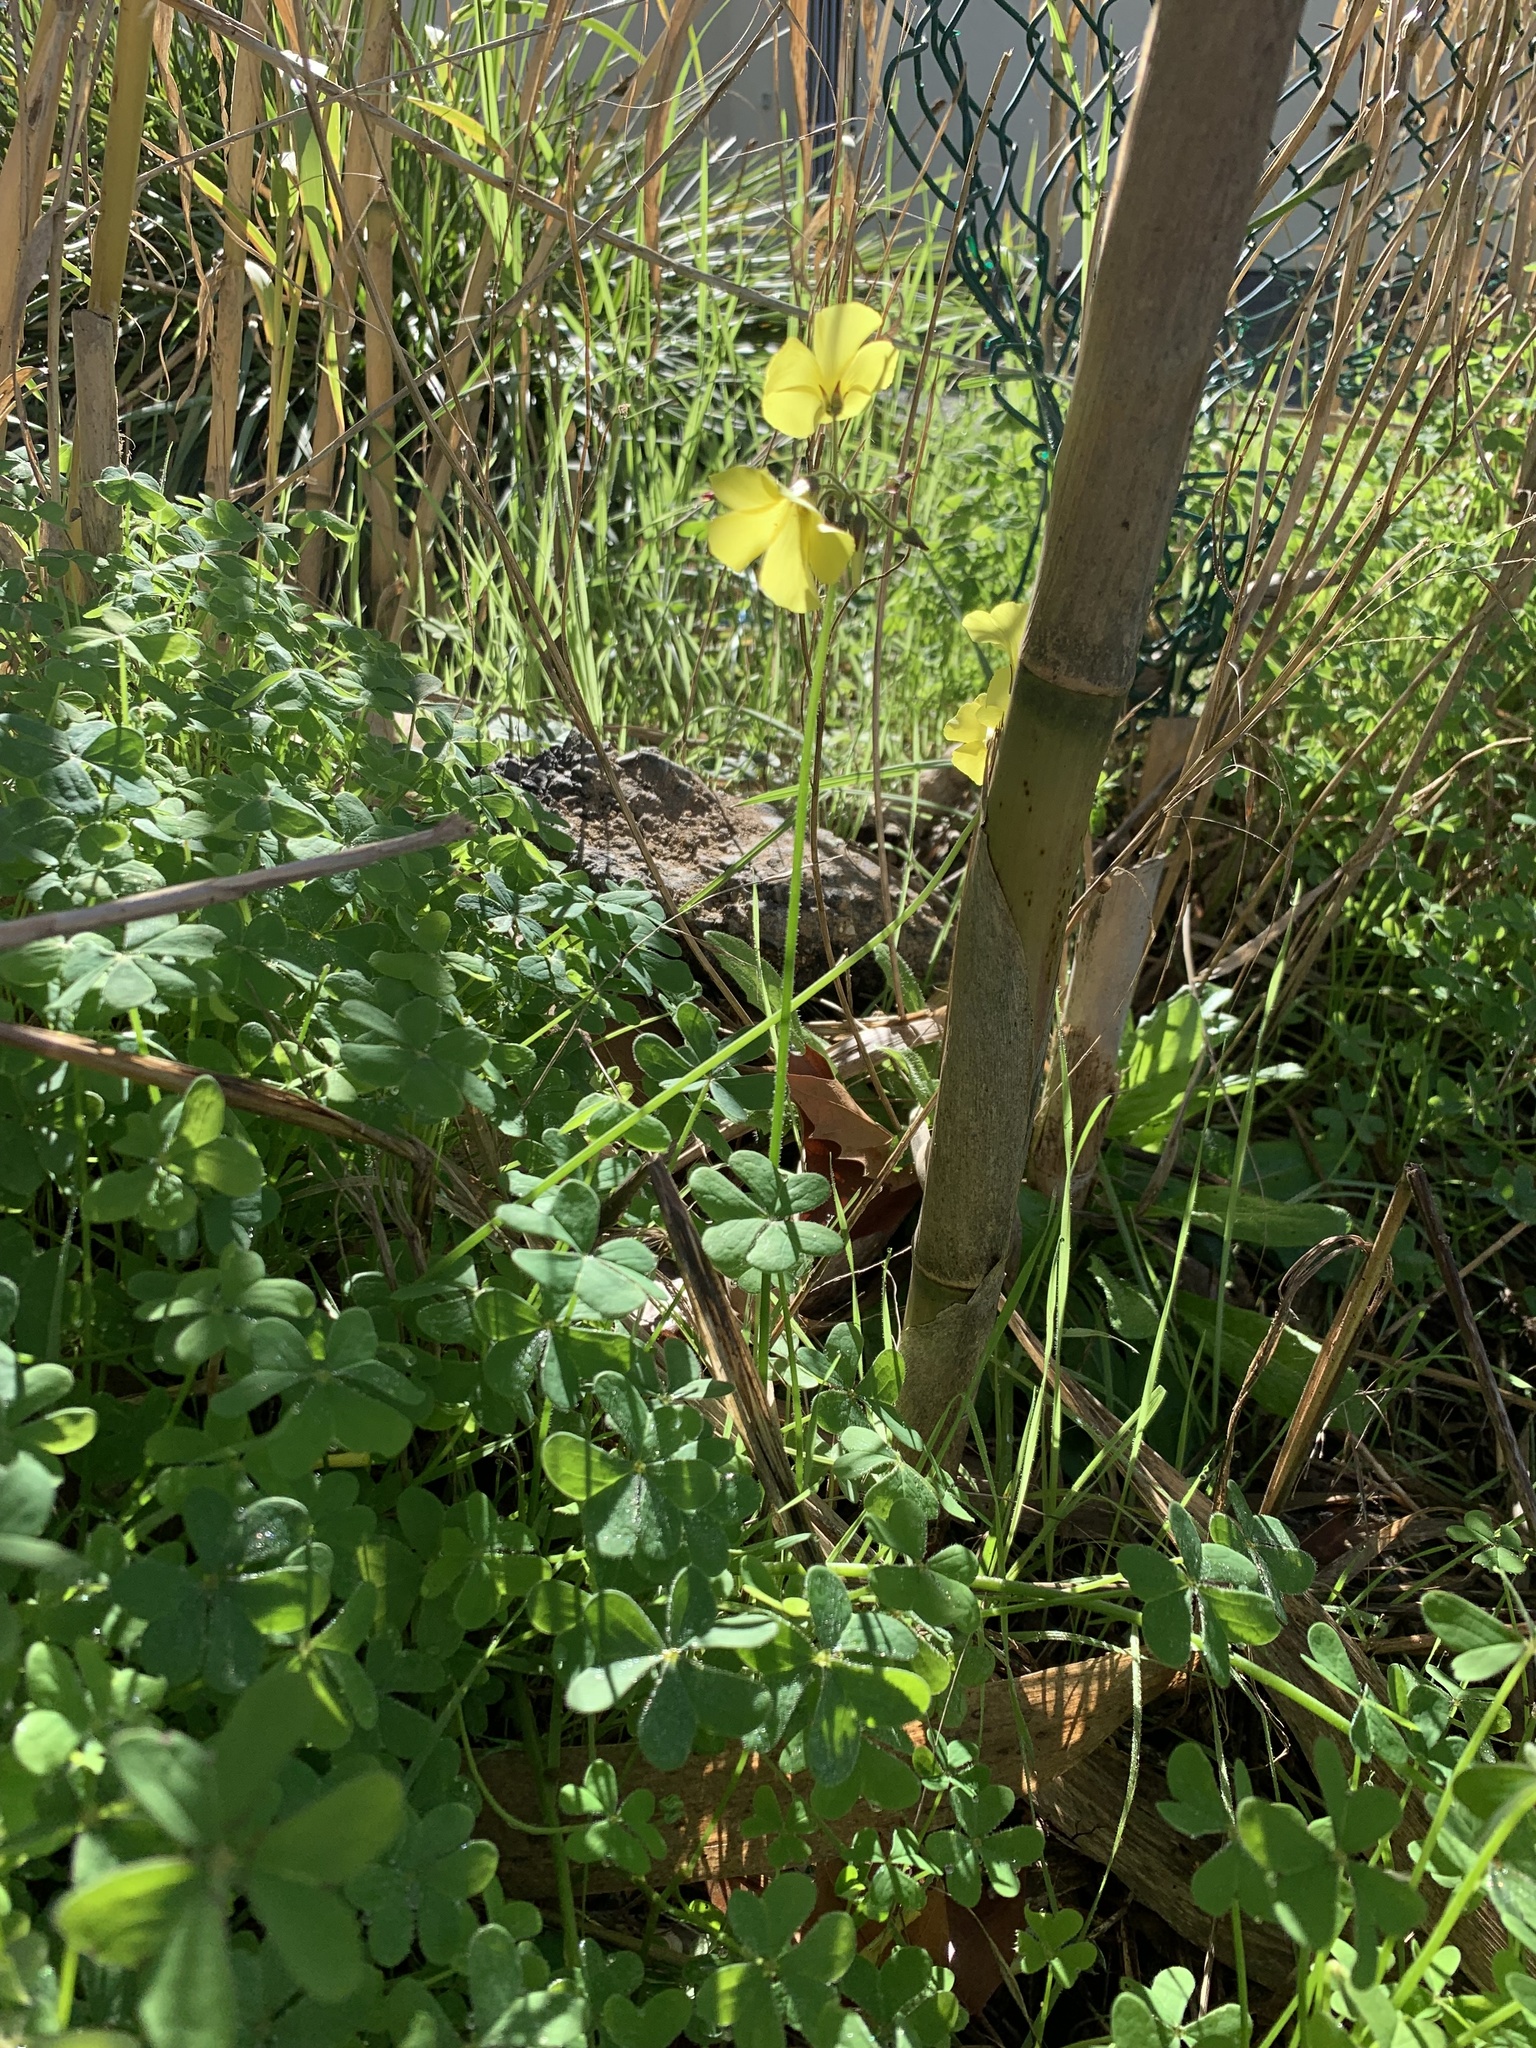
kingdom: Plantae
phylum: Tracheophyta
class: Magnoliopsida
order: Oxalidales
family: Oxalidaceae
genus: Oxalis
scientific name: Oxalis pes-caprae
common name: Bermuda-buttercup
